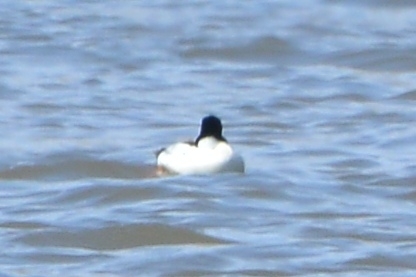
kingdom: Animalia
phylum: Chordata
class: Aves
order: Anseriformes
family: Anatidae
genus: Bucephala
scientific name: Bucephala clangula
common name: Common goldeneye
